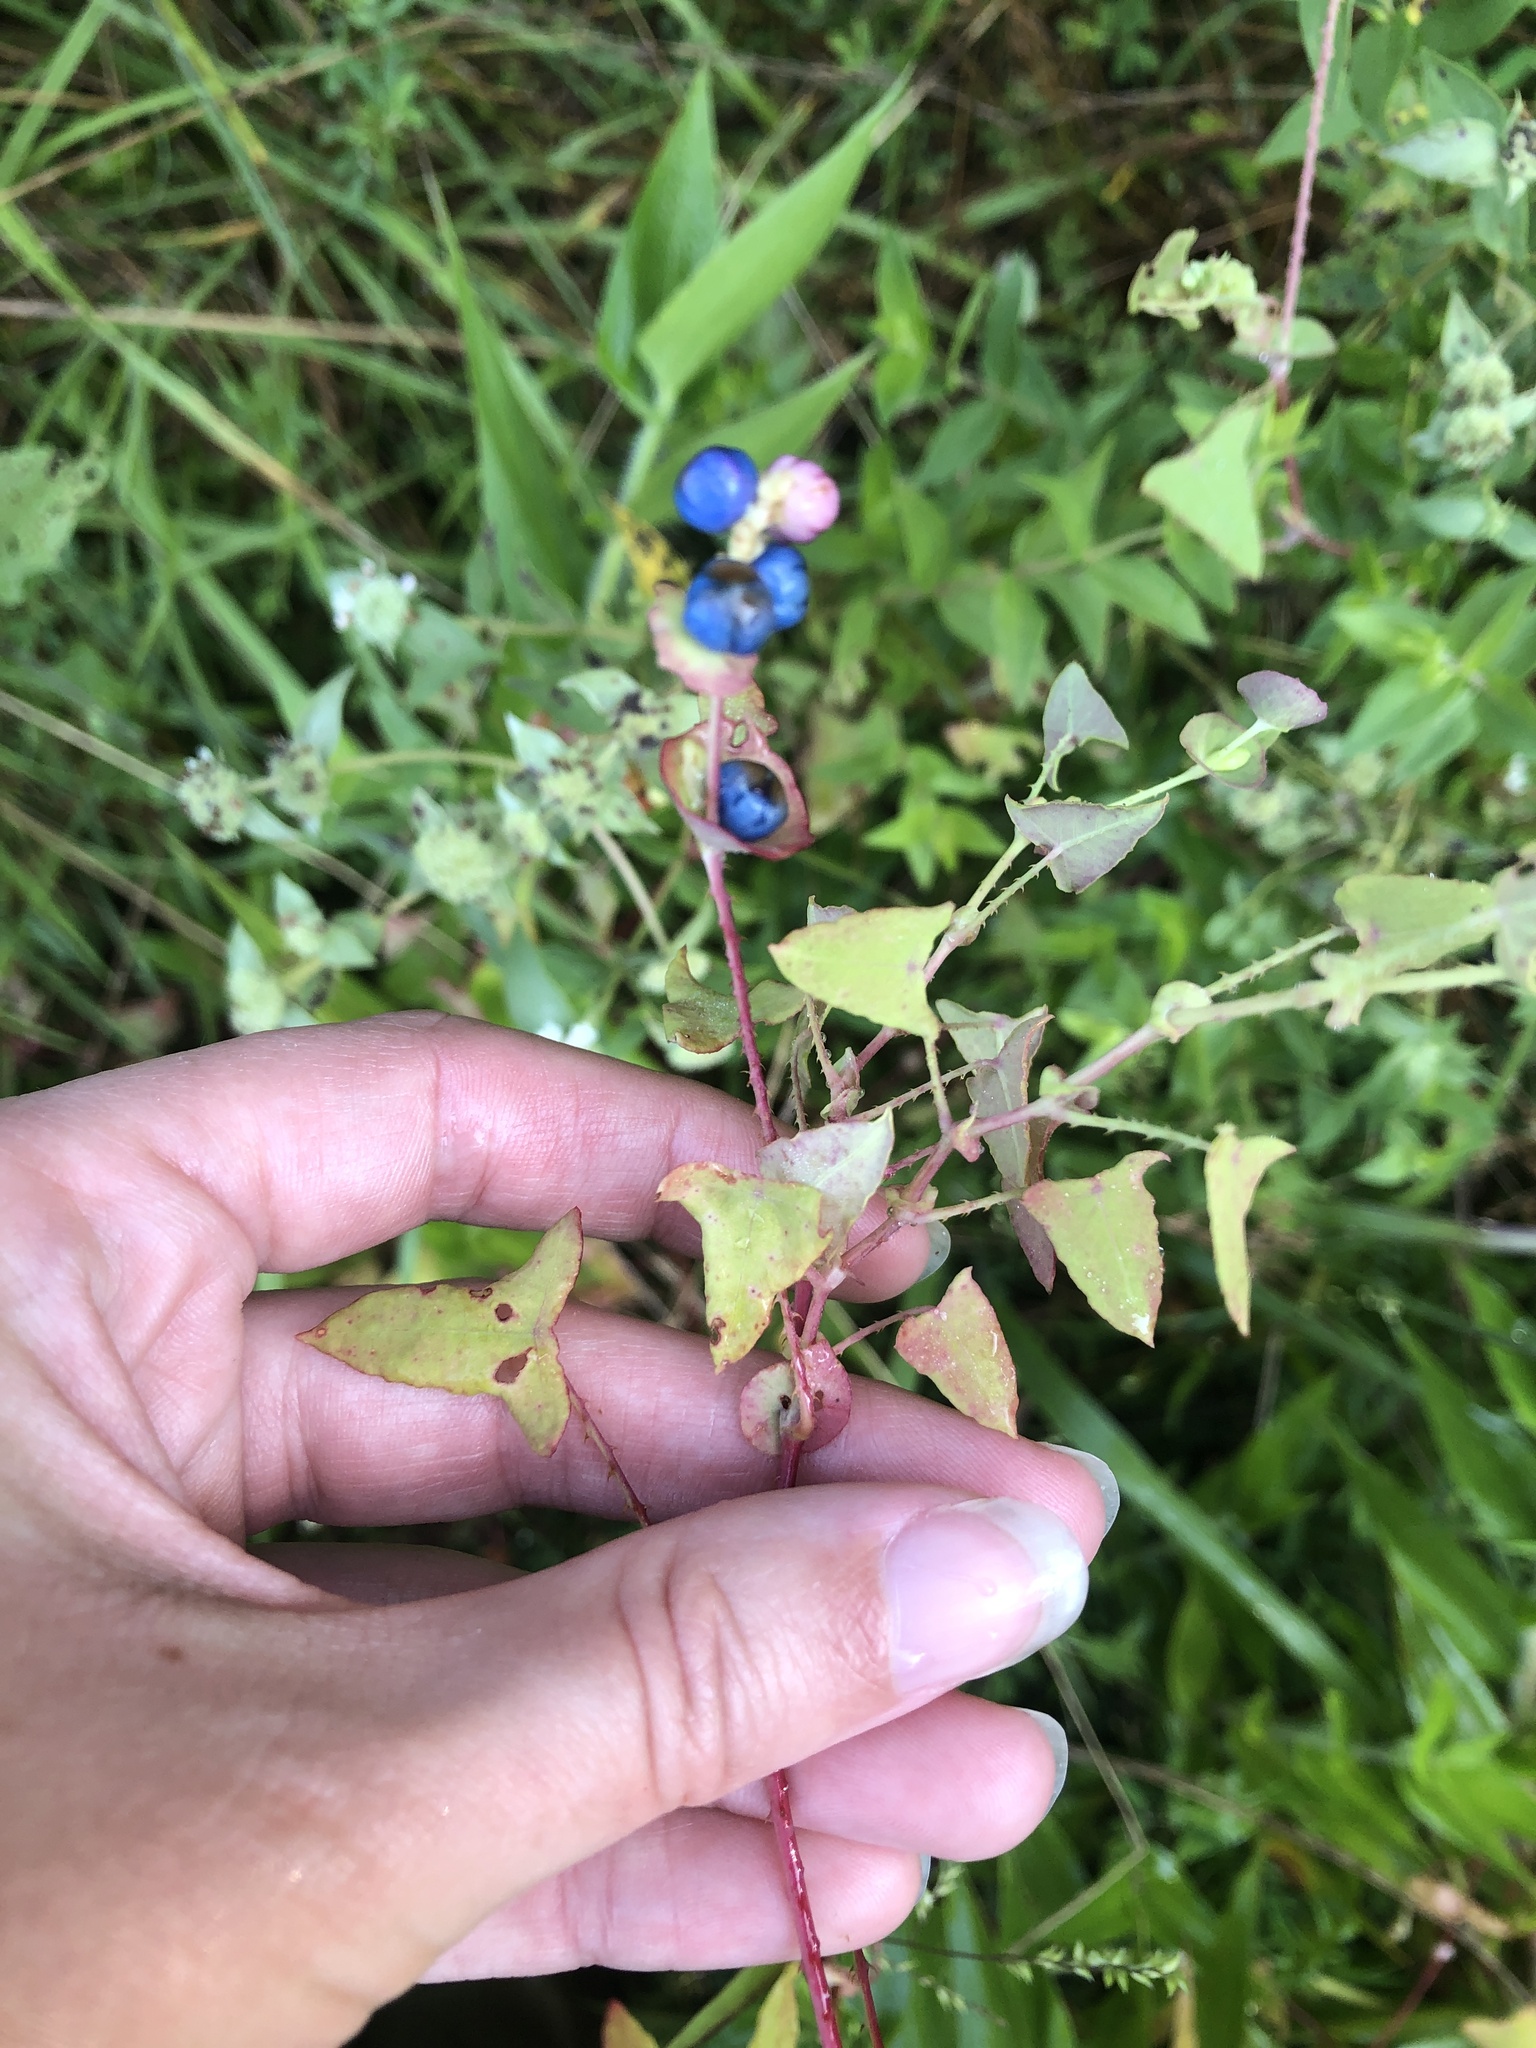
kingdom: Plantae
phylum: Tracheophyta
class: Magnoliopsida
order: Caryophyllales
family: Polygonaceae
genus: Persicaria
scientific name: Persicaria perfoliata
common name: Asiatic tearthumb
